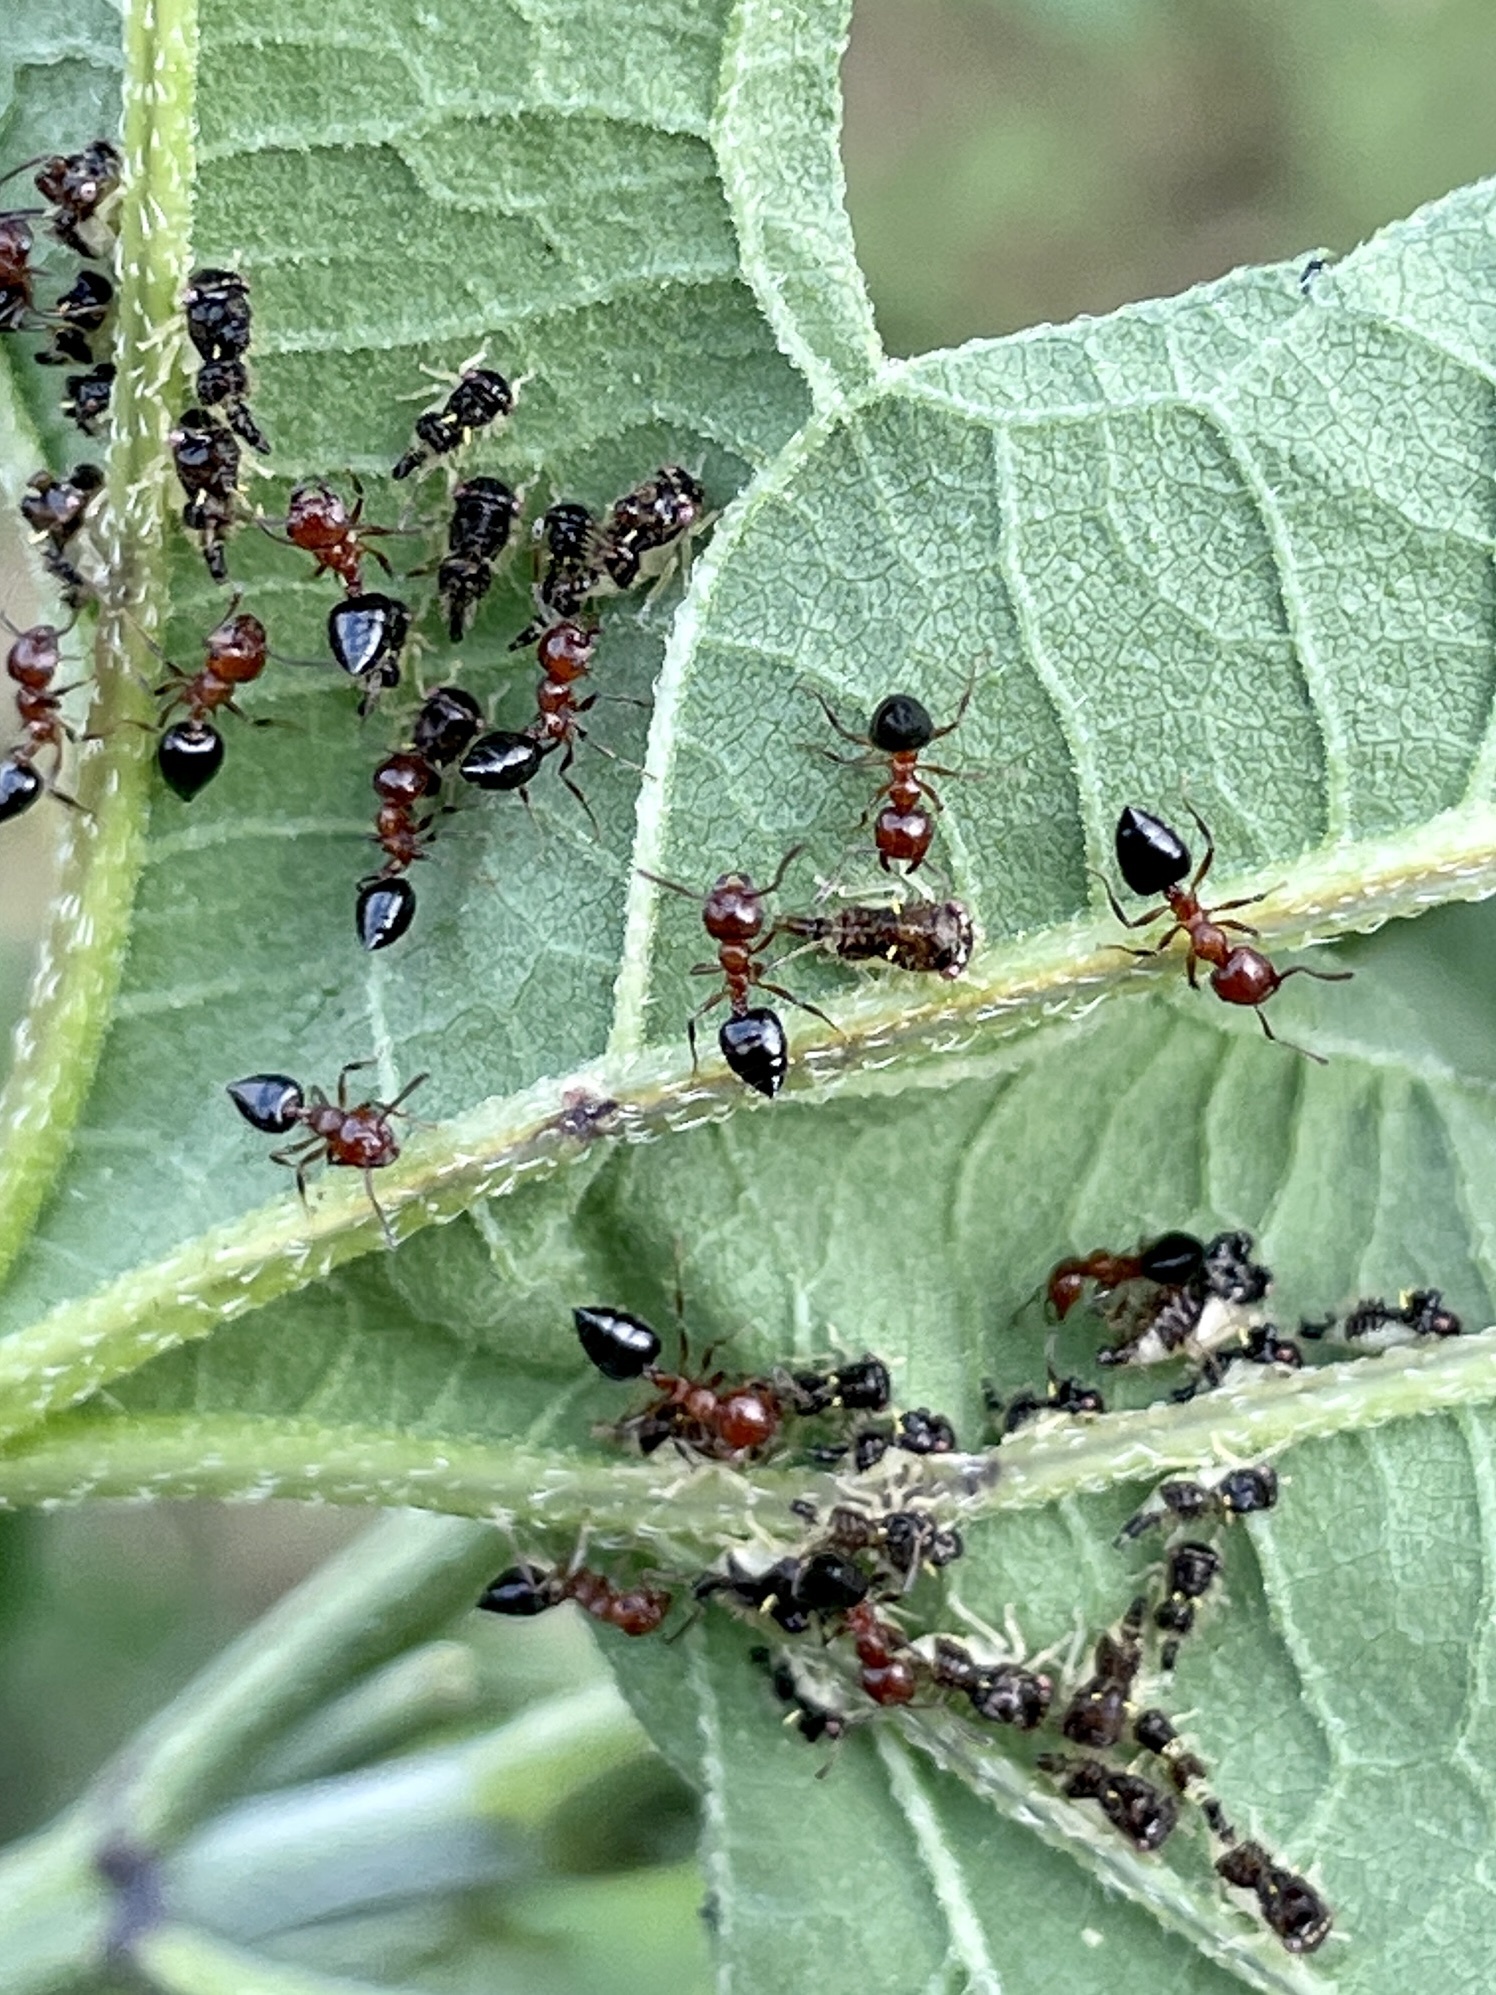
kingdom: Animalia
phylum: Arthropoda
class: Insecta
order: Hymenoptera
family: Formicidae
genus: Crematogaster
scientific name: Crematogaster laeviuscula
